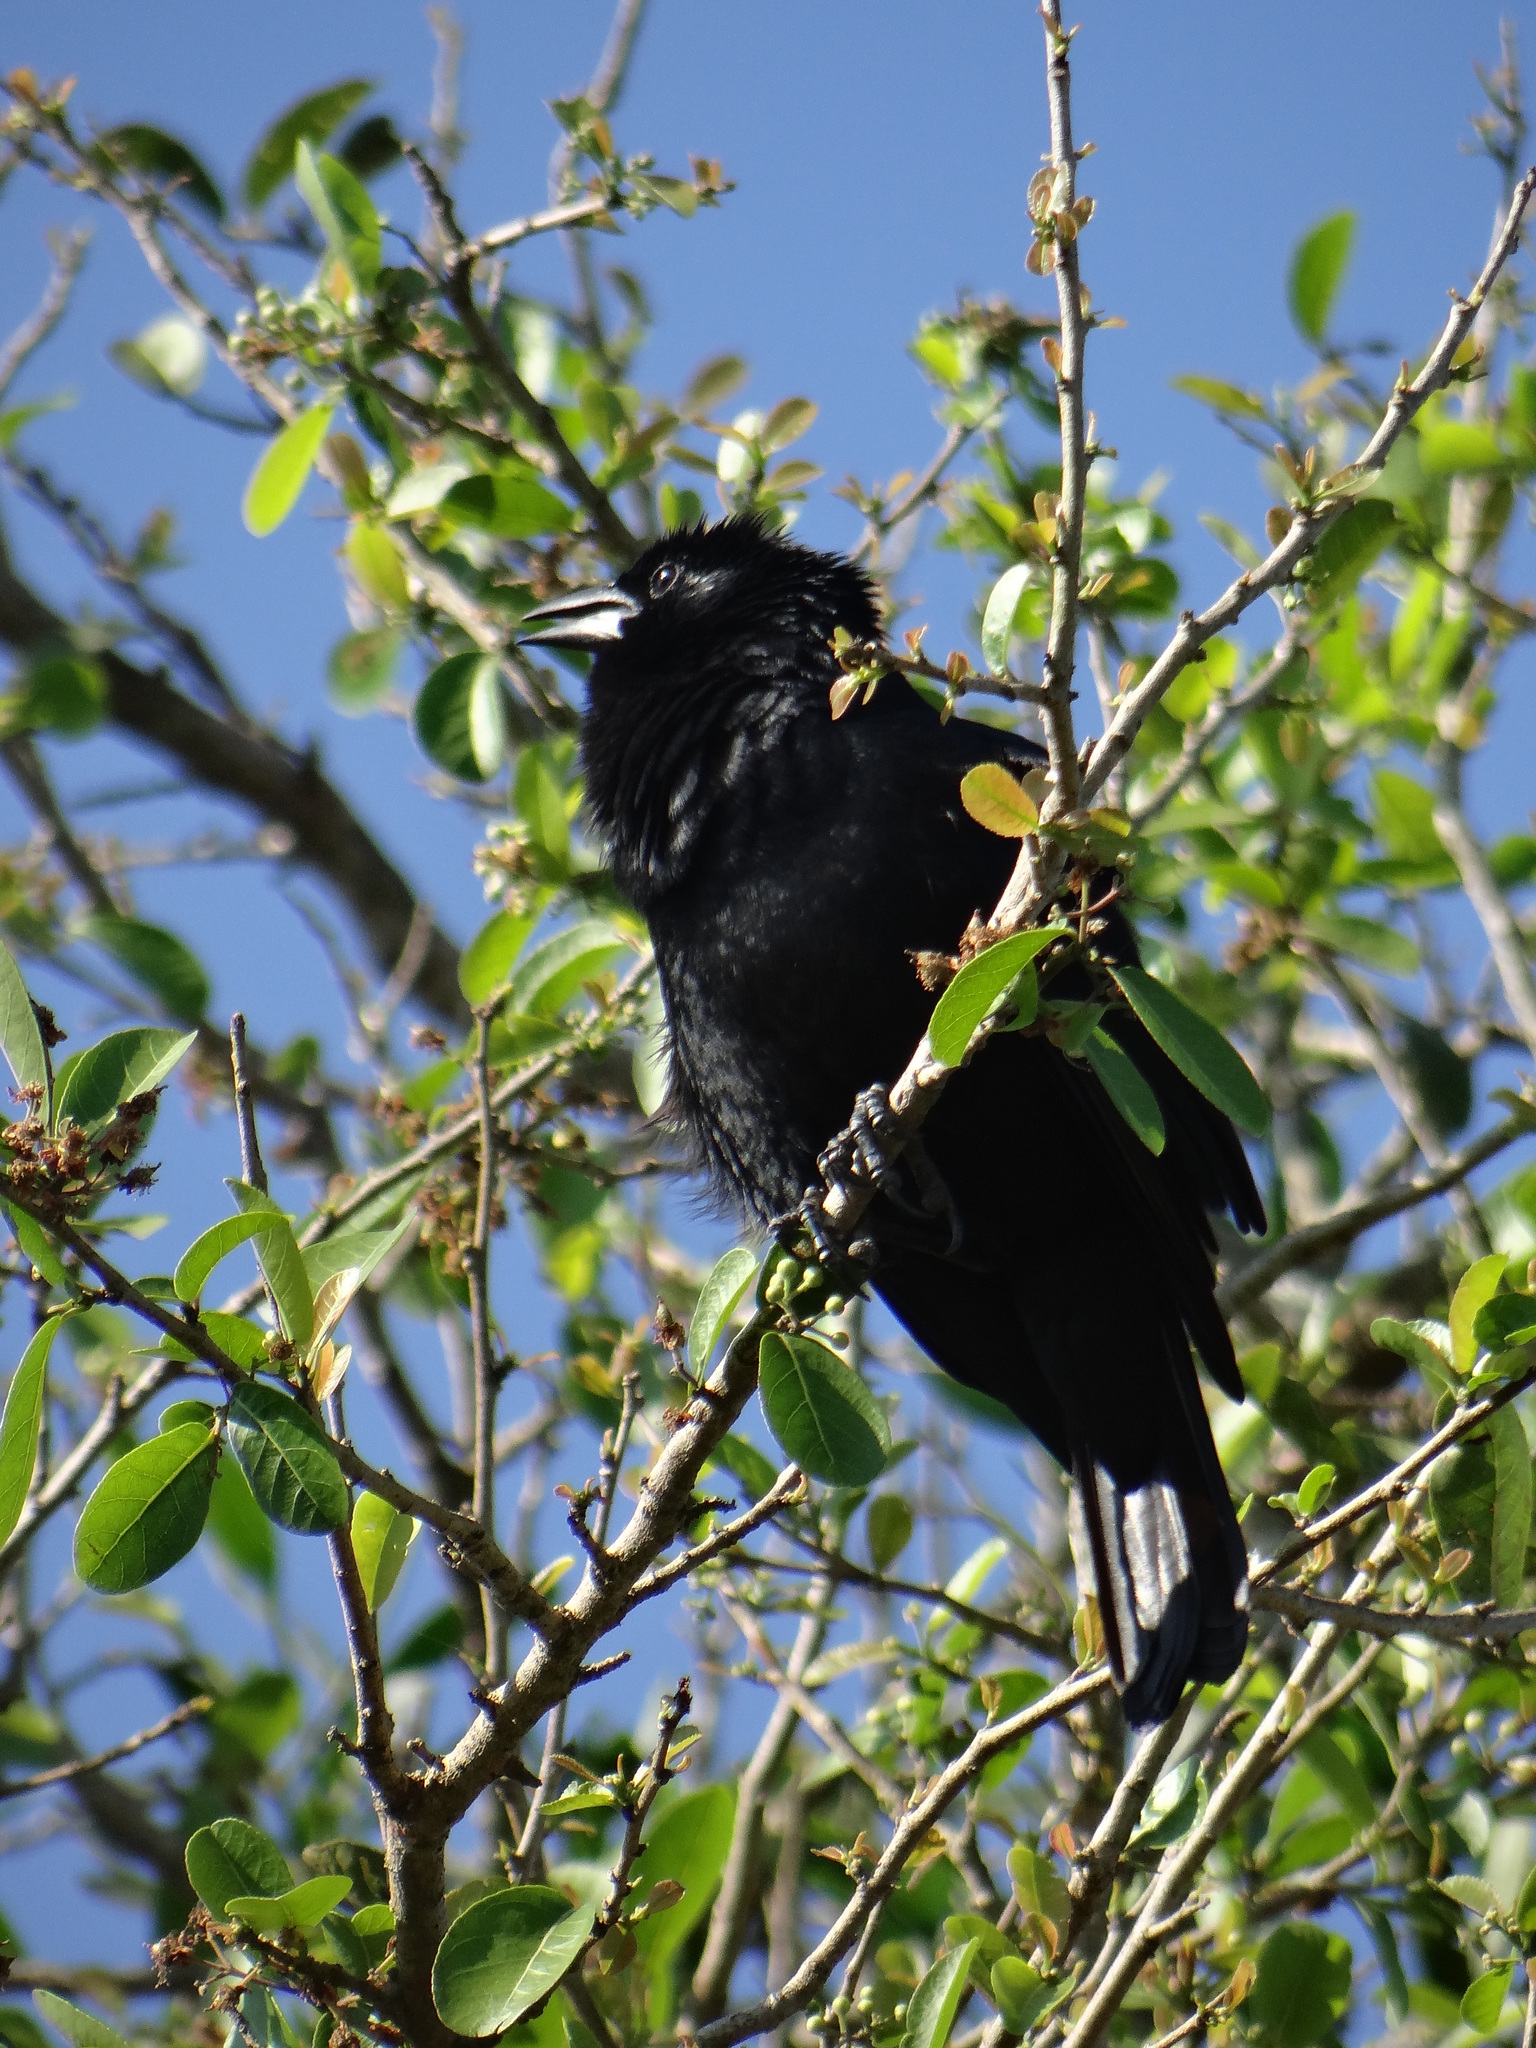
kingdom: Animalia
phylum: Chordata
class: Aves
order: Passeriformes
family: Icteridae
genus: Gnorimopsar
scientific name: Gnorimopsar chopi
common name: Chopi blackbird
